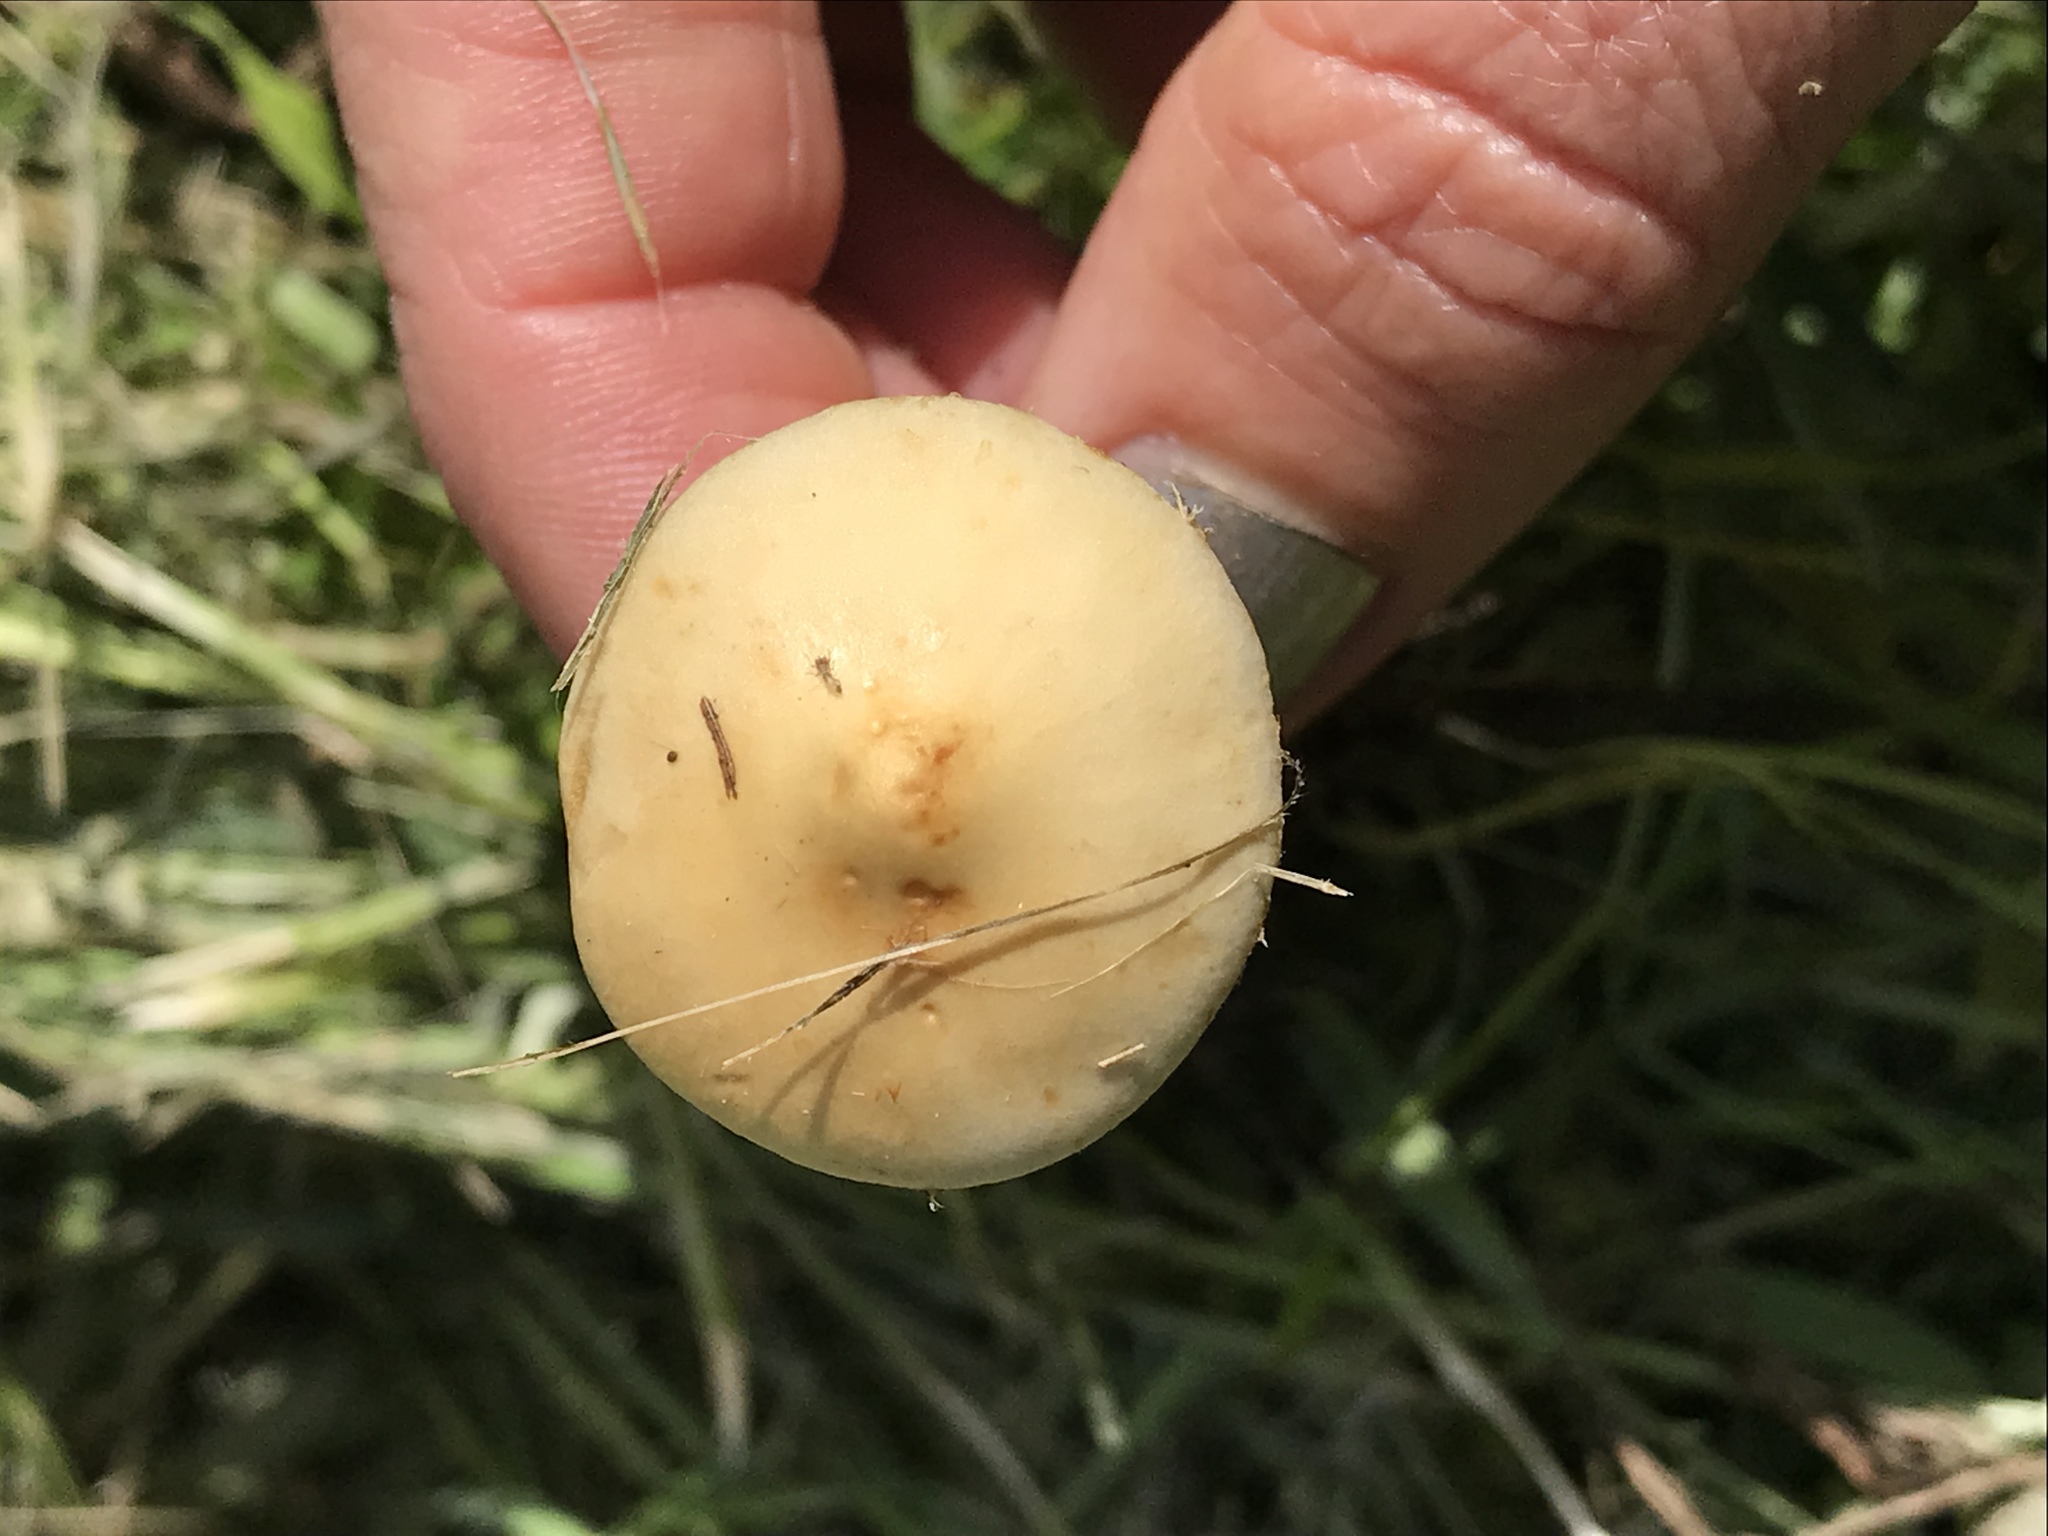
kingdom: Fungi
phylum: Basidiomycota
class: Agaricomycetes
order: Agaricales
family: Strophariaceae
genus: Leratiomyces
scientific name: Leratiomyces percevalii
